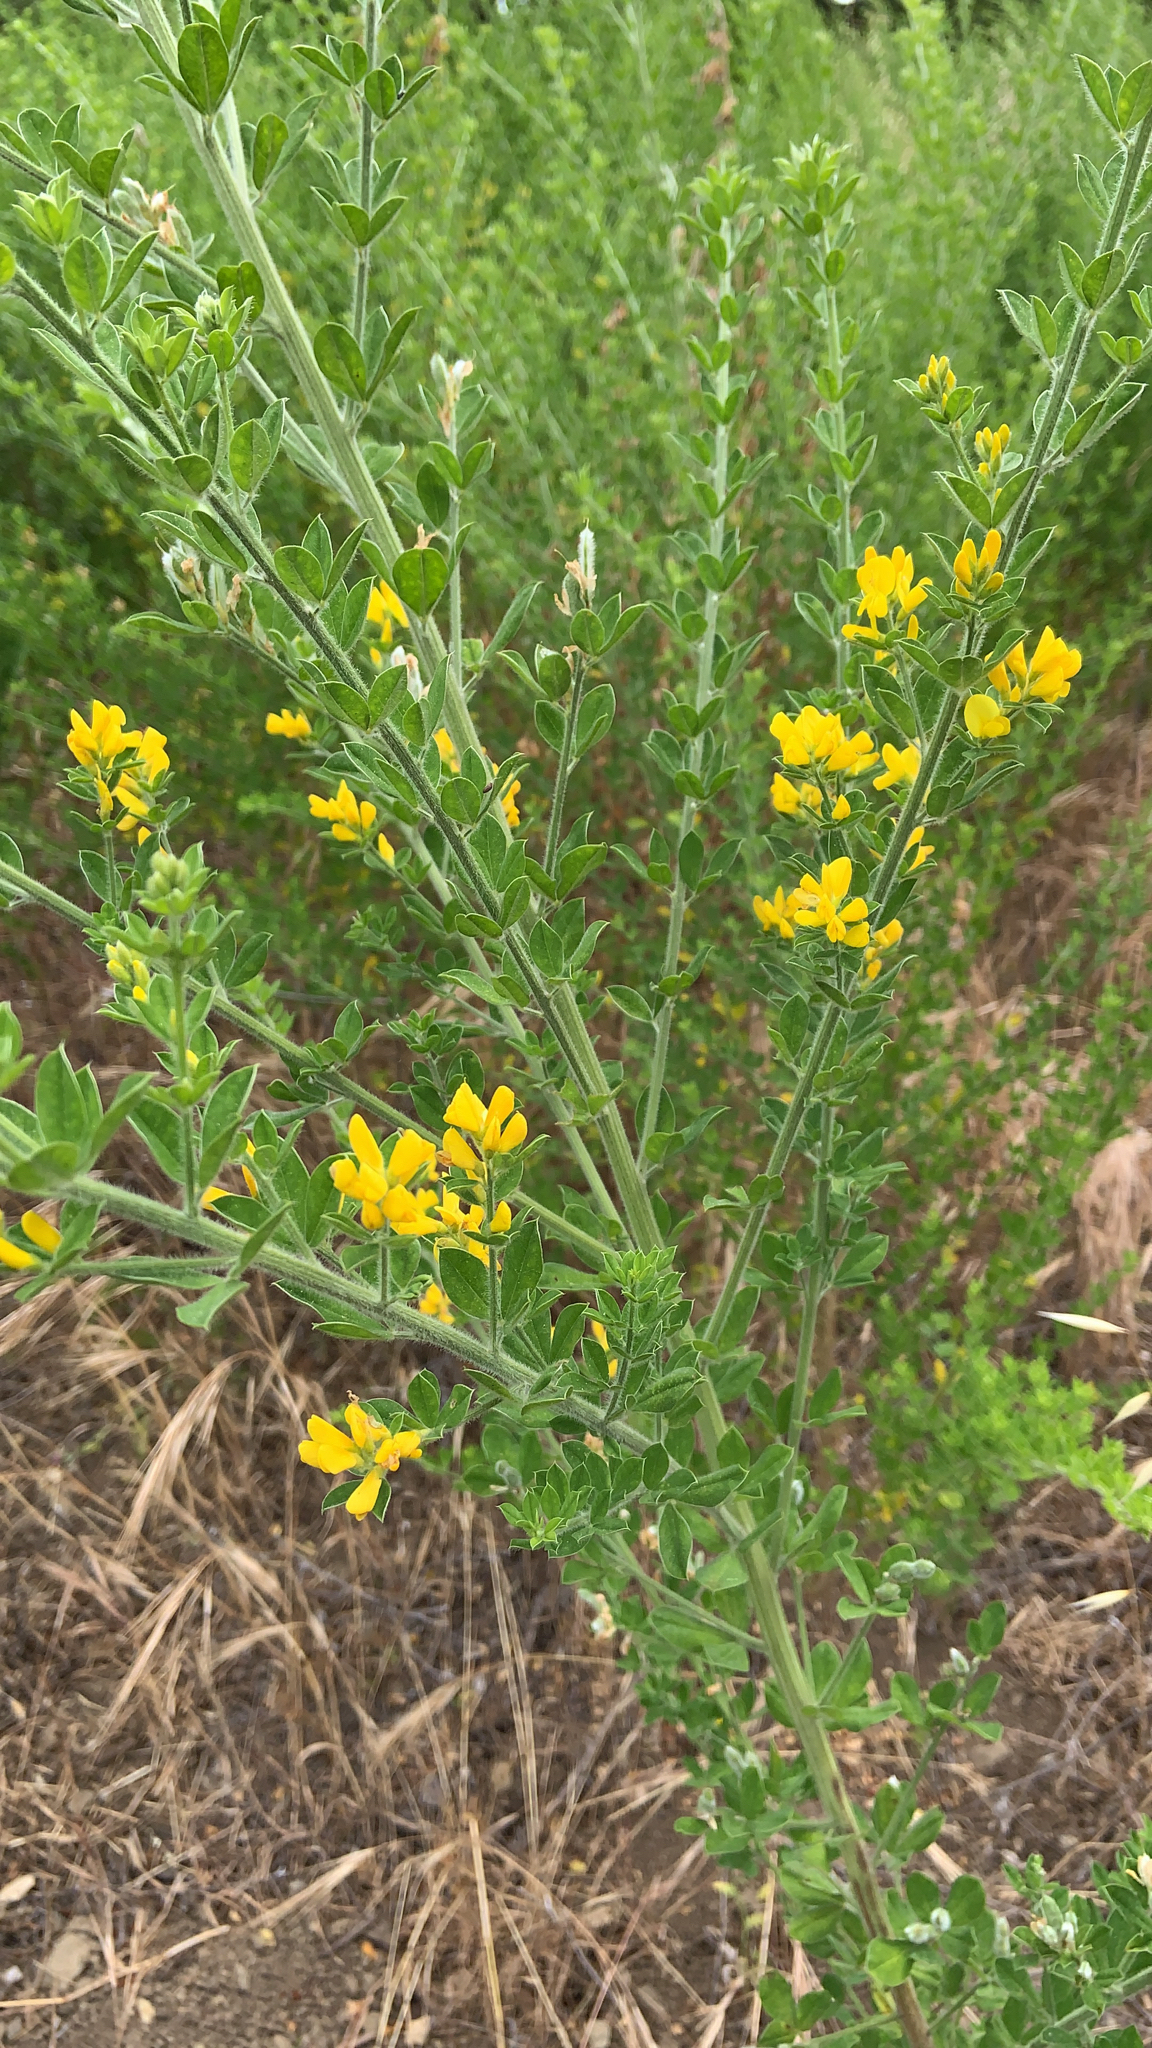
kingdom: Plantae
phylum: Tracheophyta
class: Magnoliopsida
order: Fabales
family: Fabaceae
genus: Genista
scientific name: Genista monspessulana
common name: Montpellier broom
